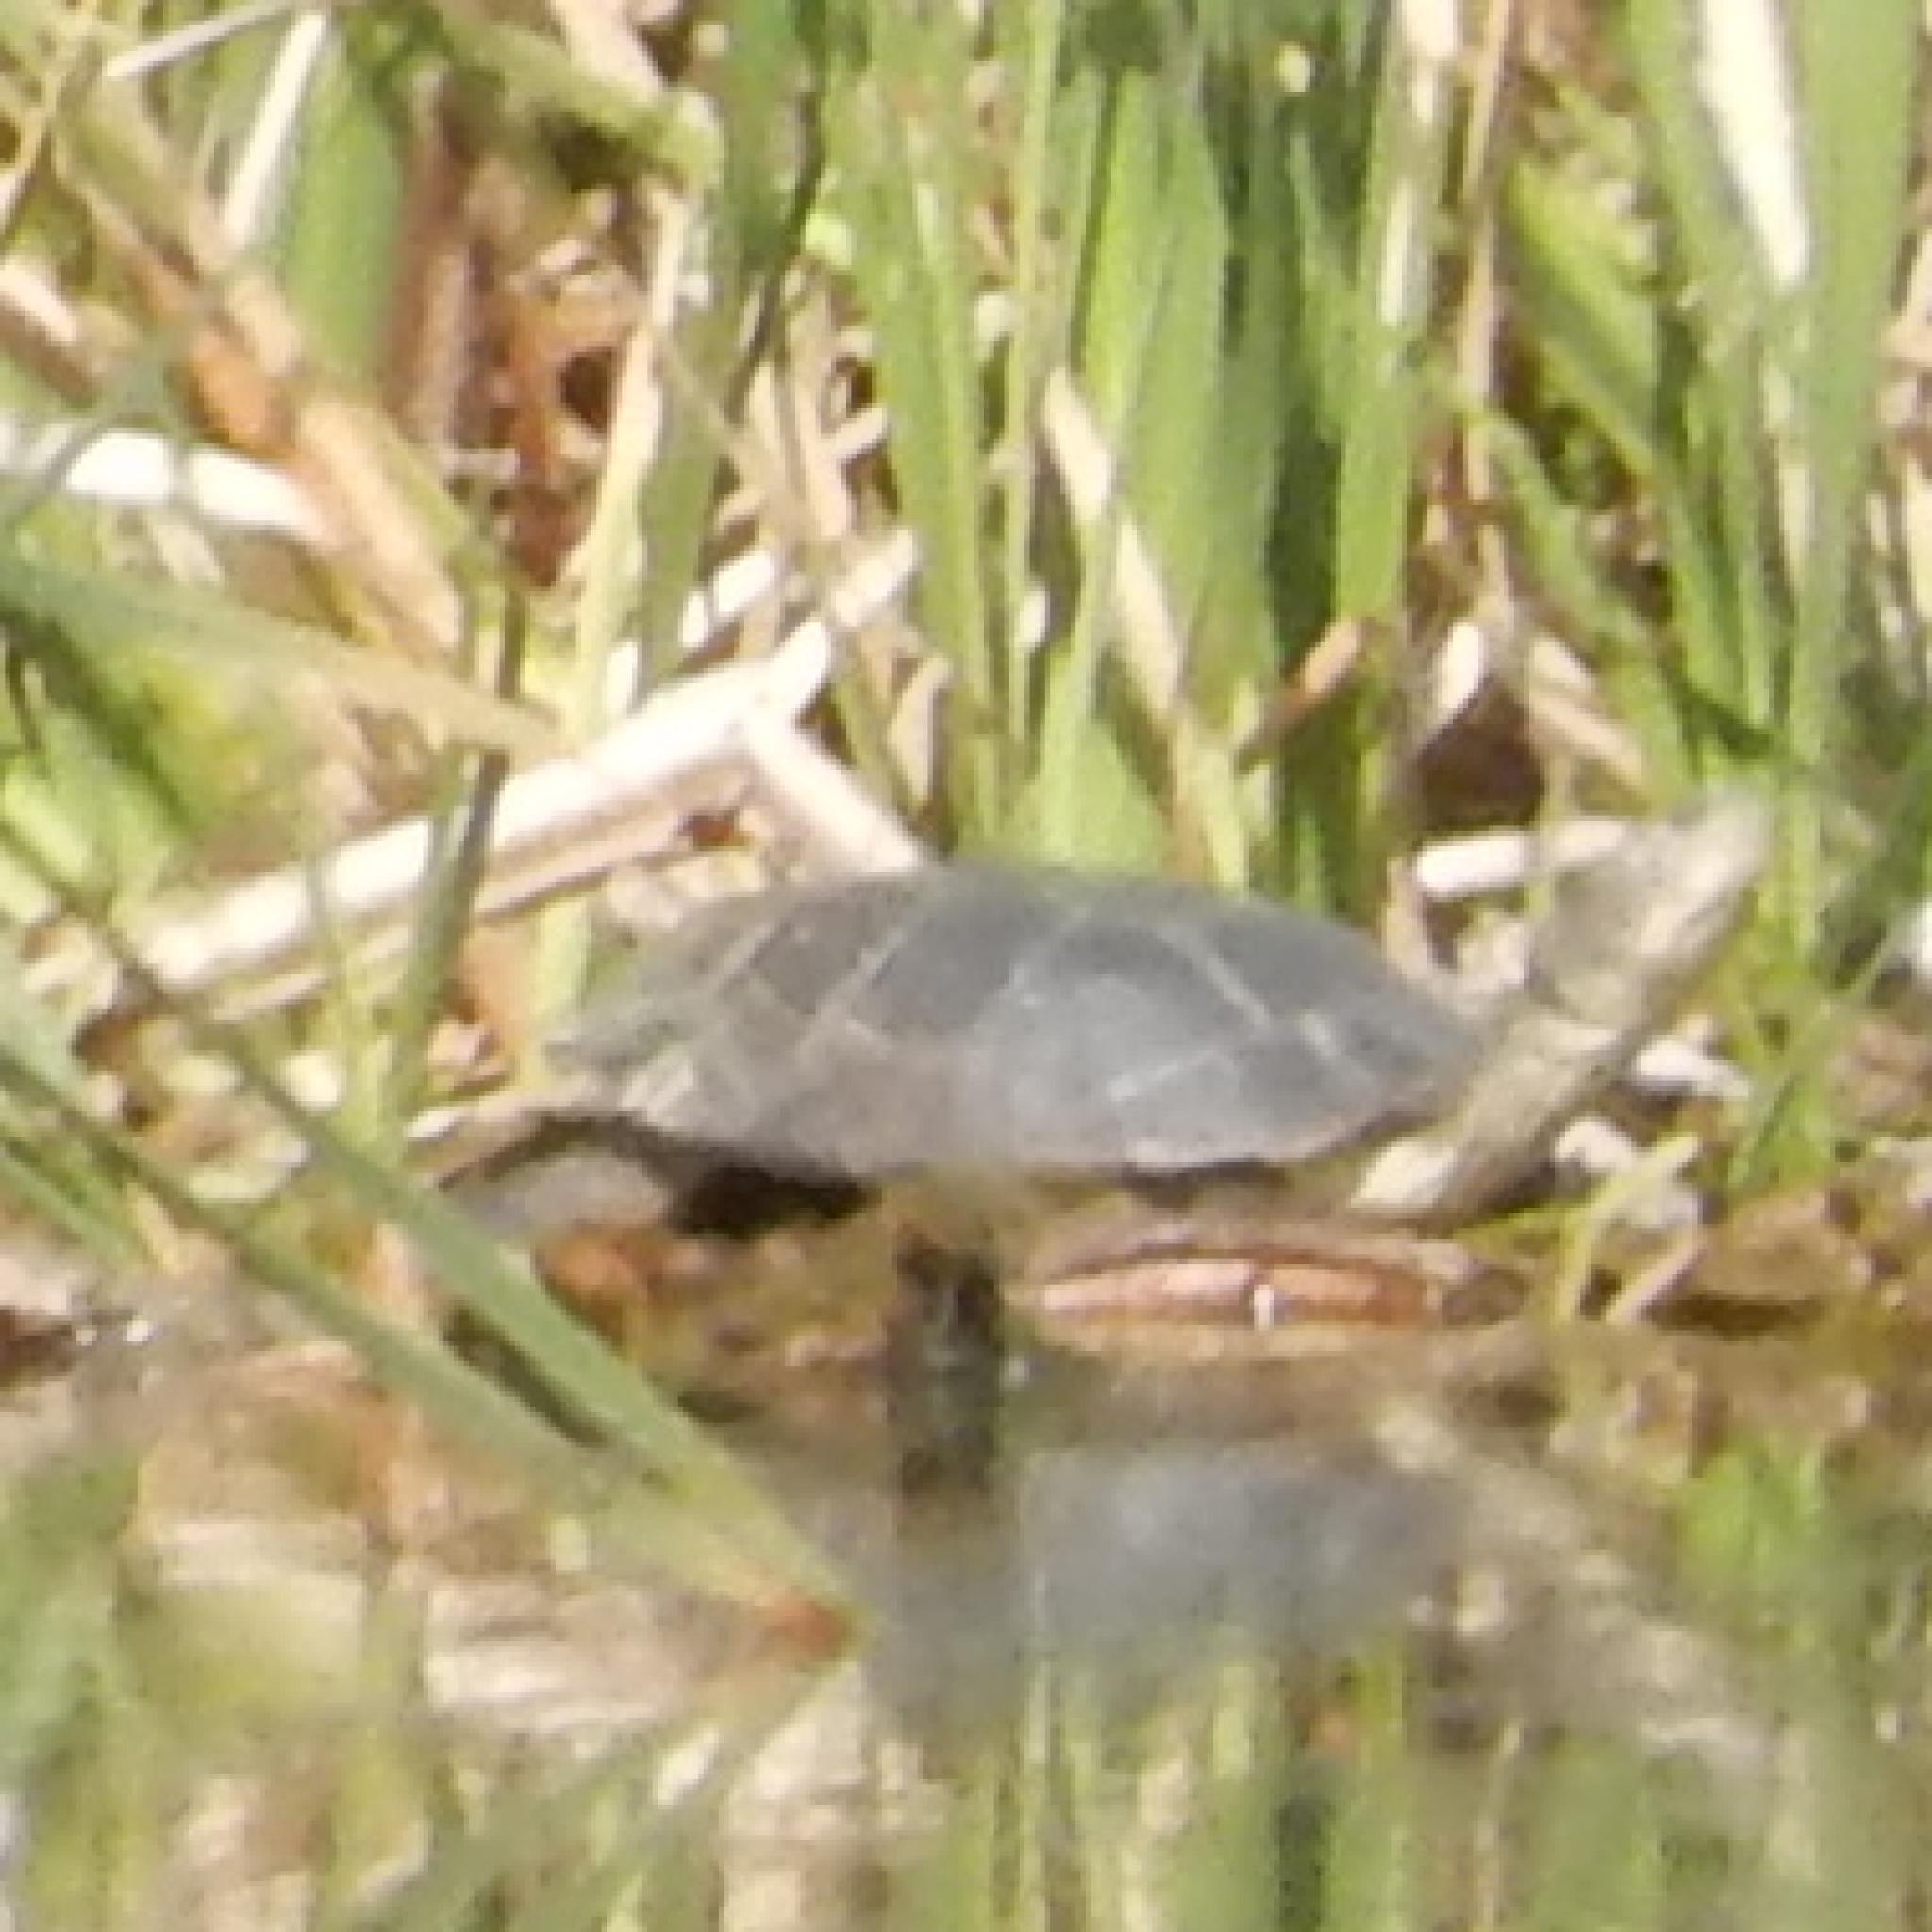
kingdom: Animalia
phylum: Chordata
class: Testudines
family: Pelomedusidae
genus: Pelomedusa
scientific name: Pelomedusa galeata
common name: South african helmeted terrapin
